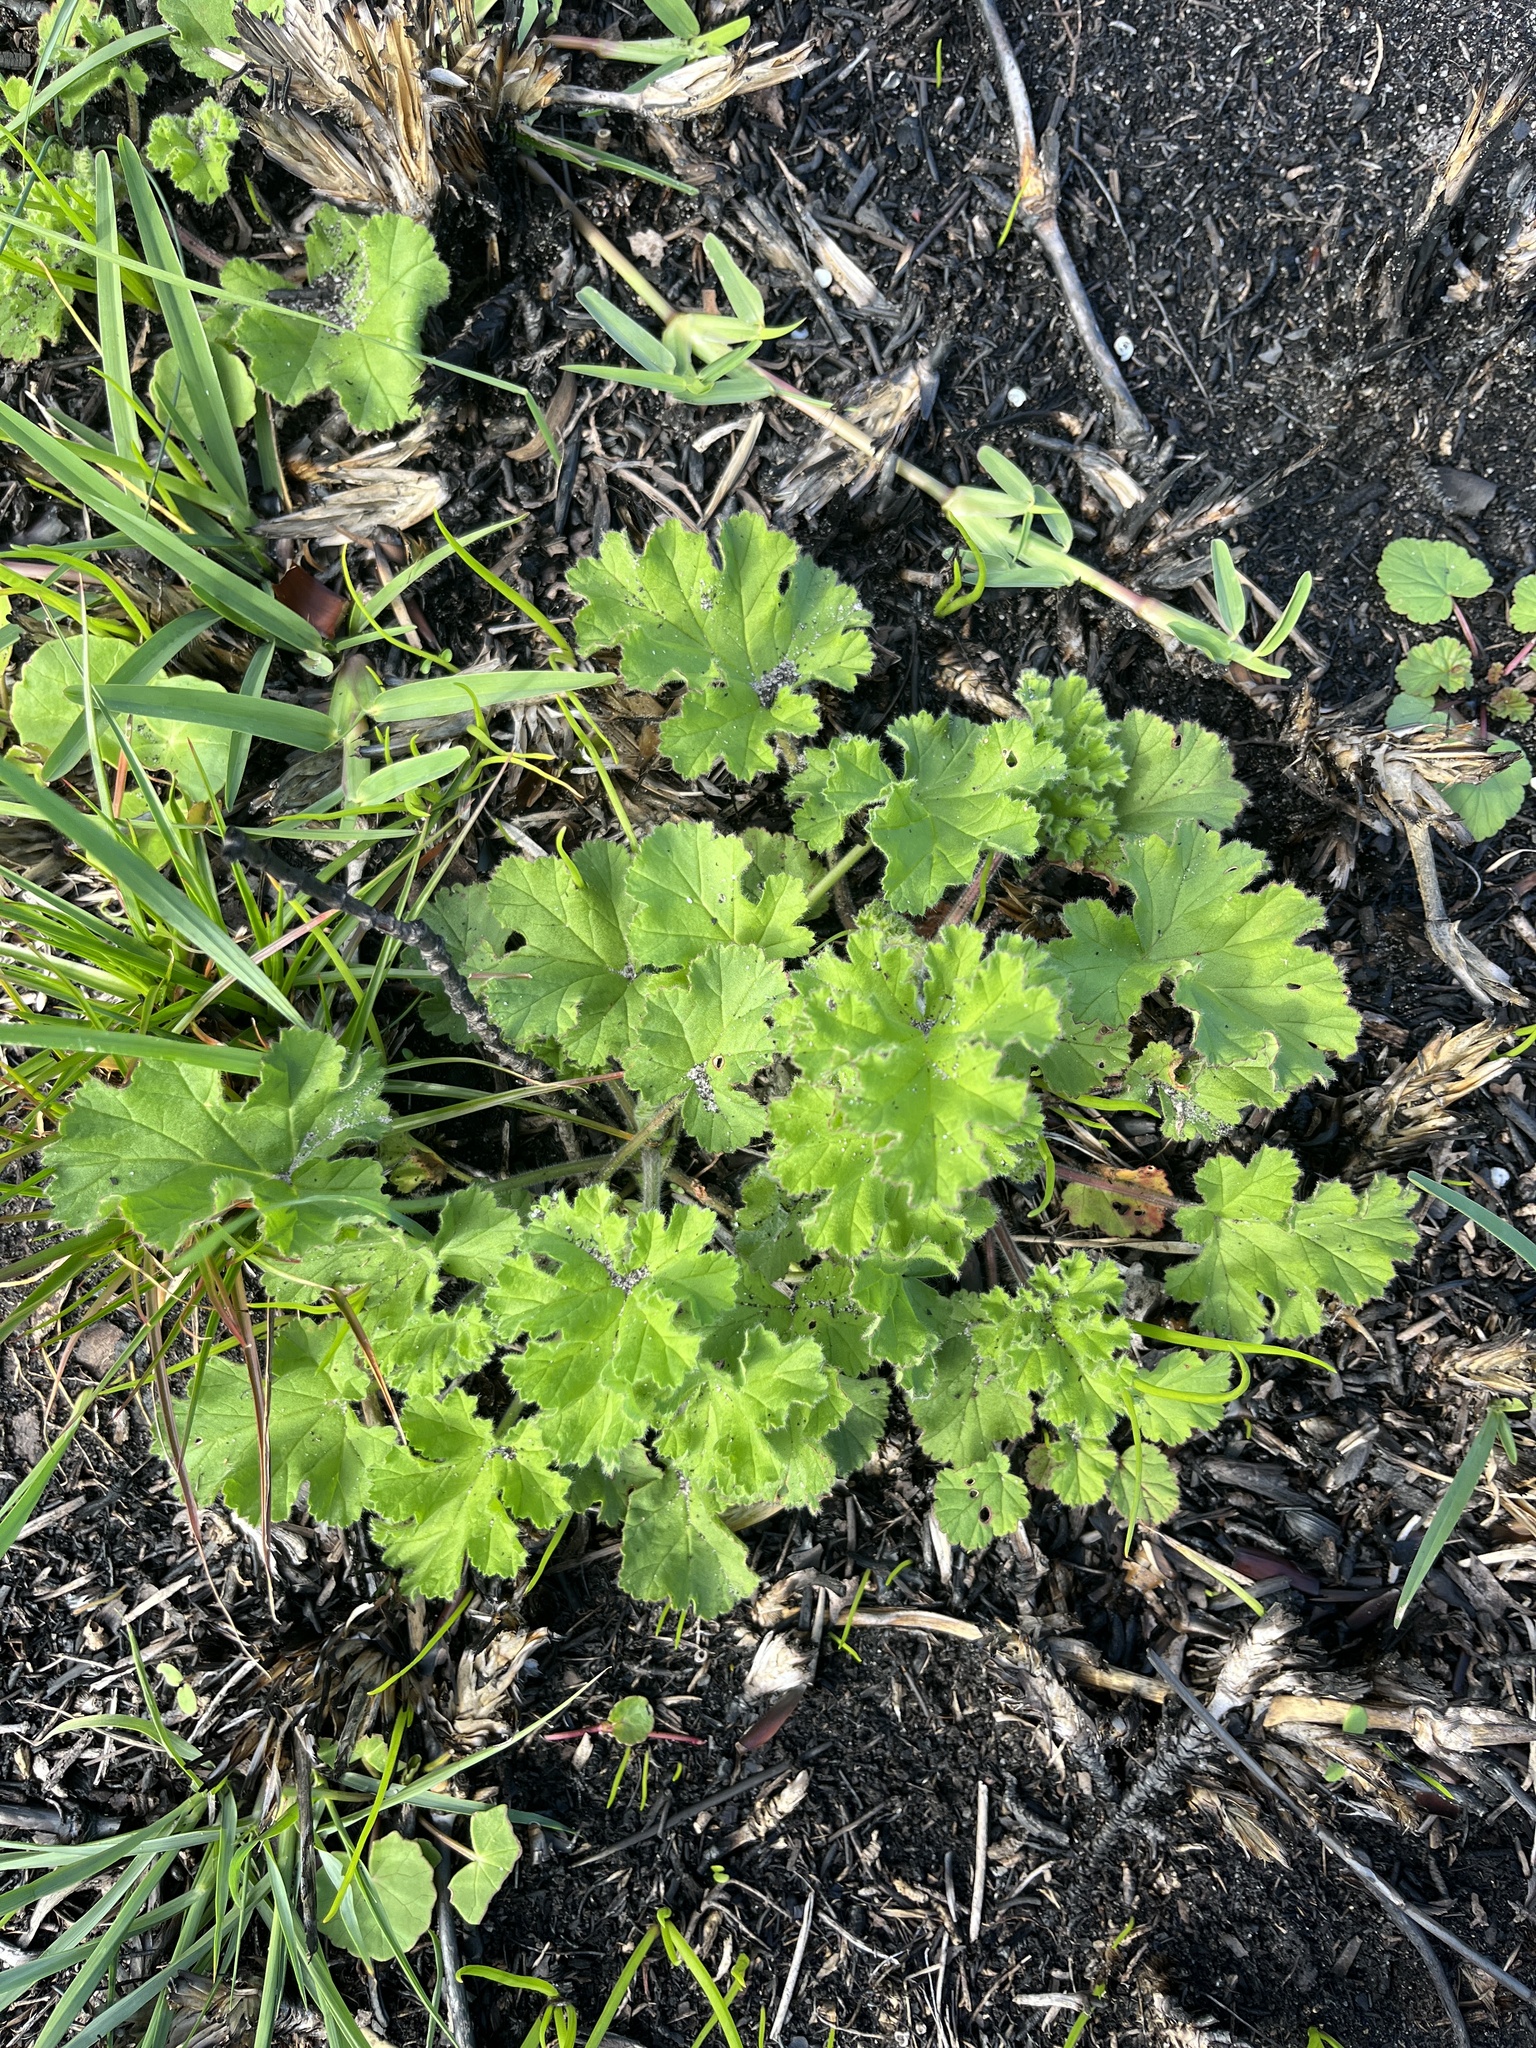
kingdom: Plantae
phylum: Tracheophyta
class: Magnoliopsida
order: Geraniales
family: Geraniaceae
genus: Pelargonium
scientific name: Pelargonium capitatum
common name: Rose scented geranium
